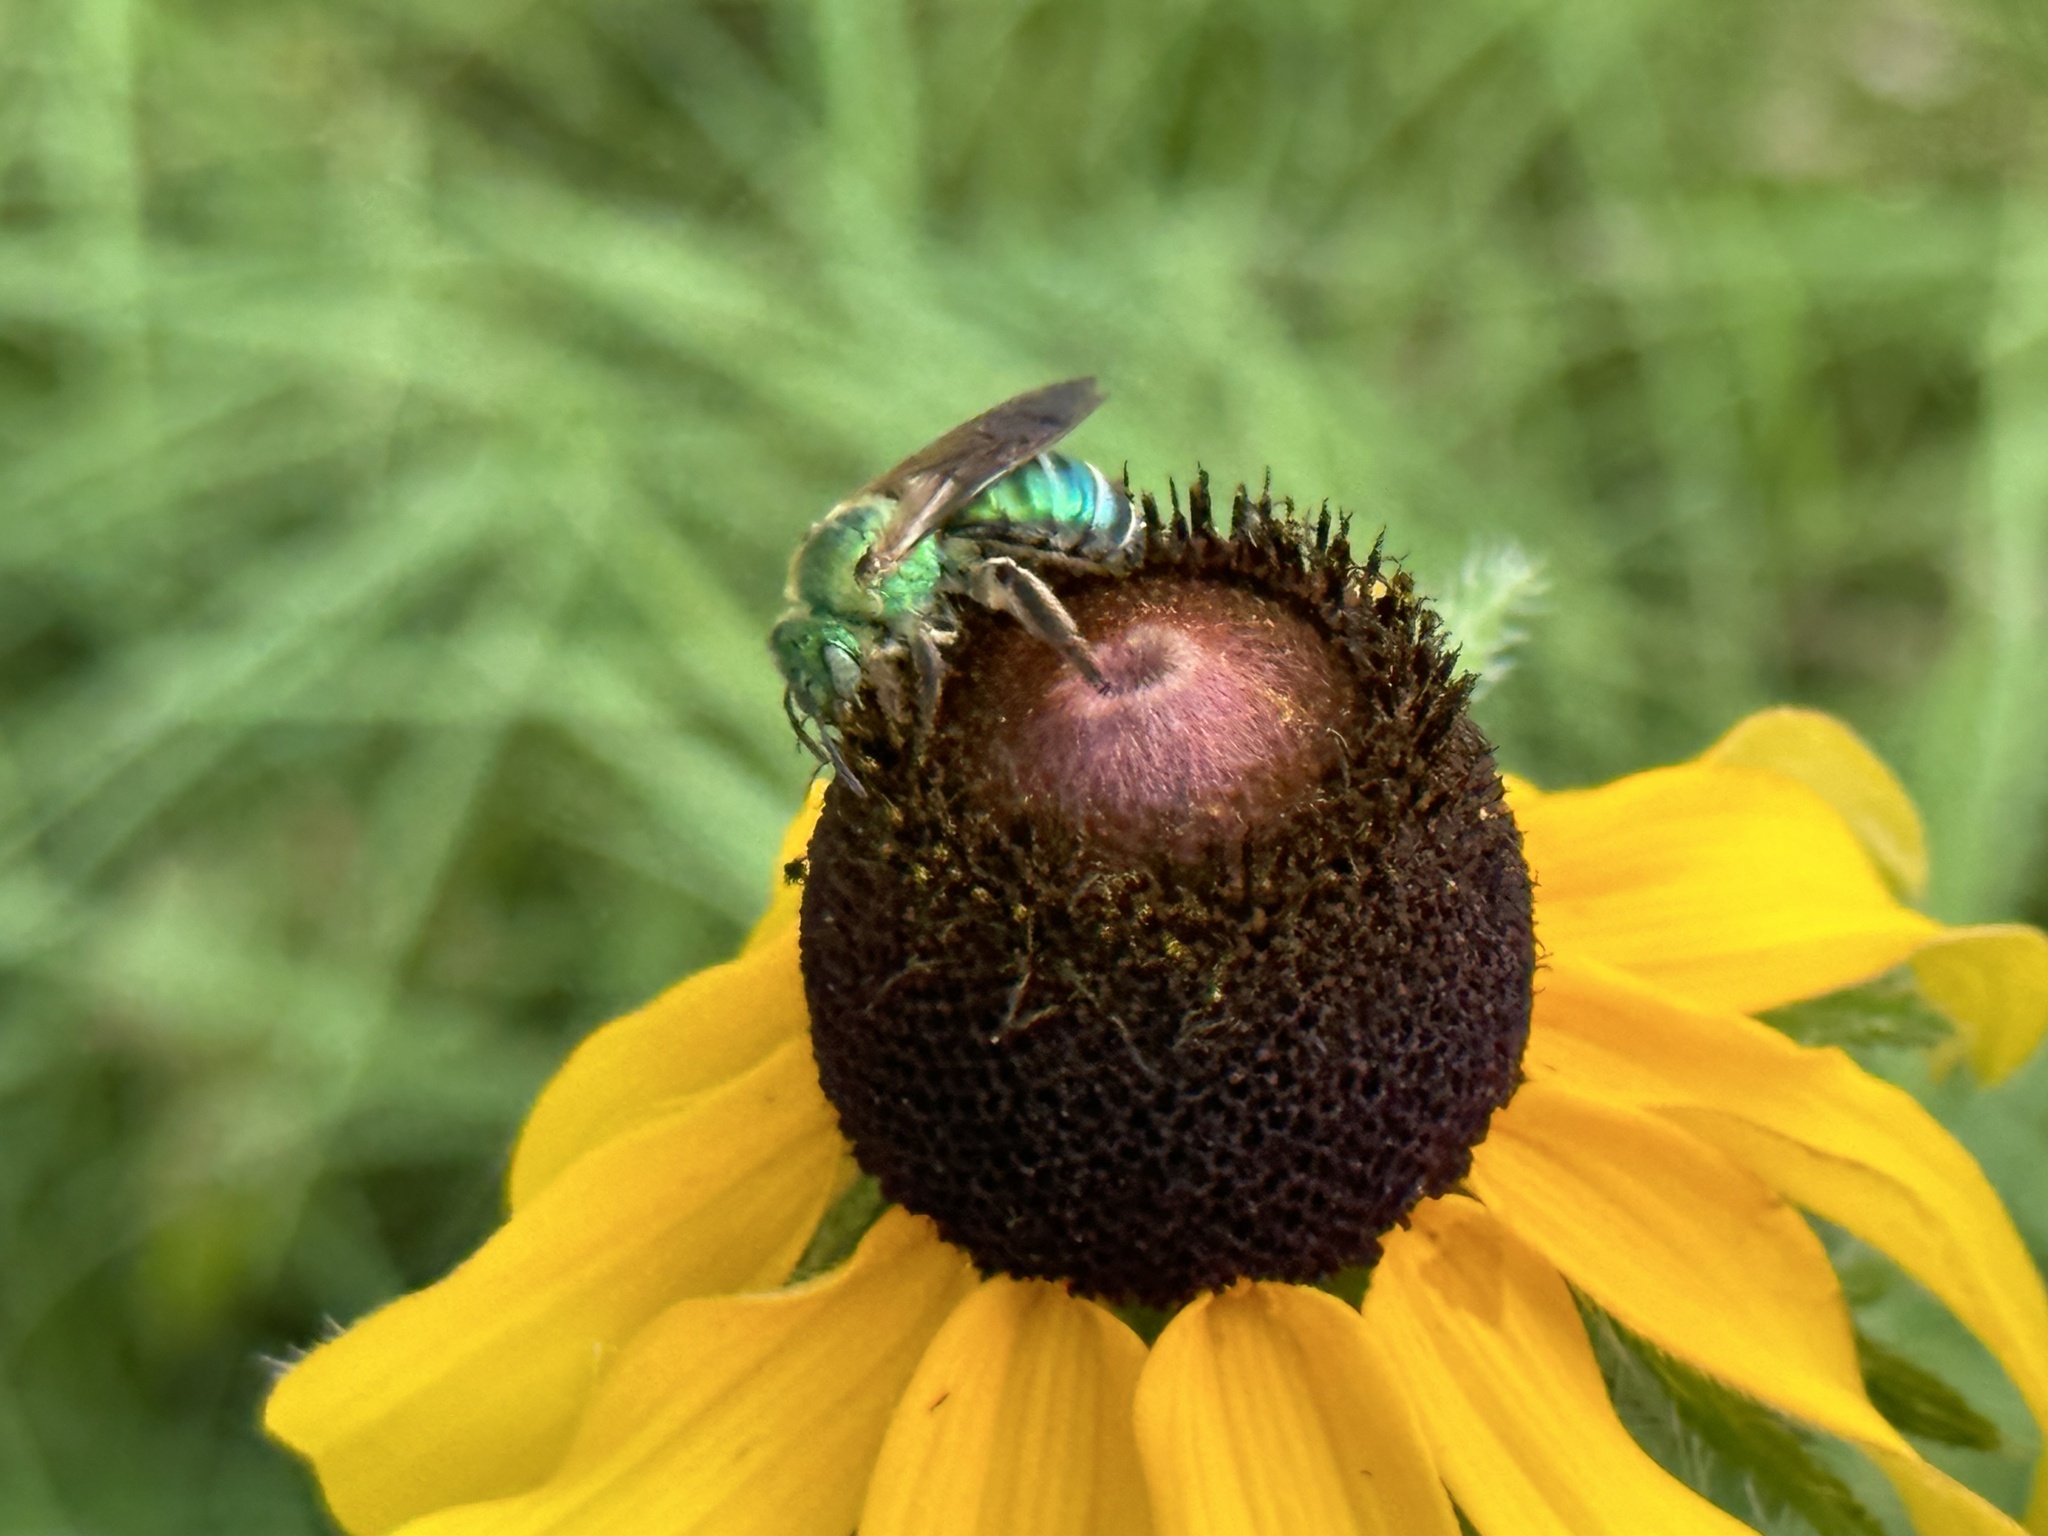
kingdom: Animalia
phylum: Arthropoda
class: Insecta
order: Hymenoptera
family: Halictidae
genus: Agapostemon
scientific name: Agapostemon splendens
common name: Brown-winged striped sweat bee
